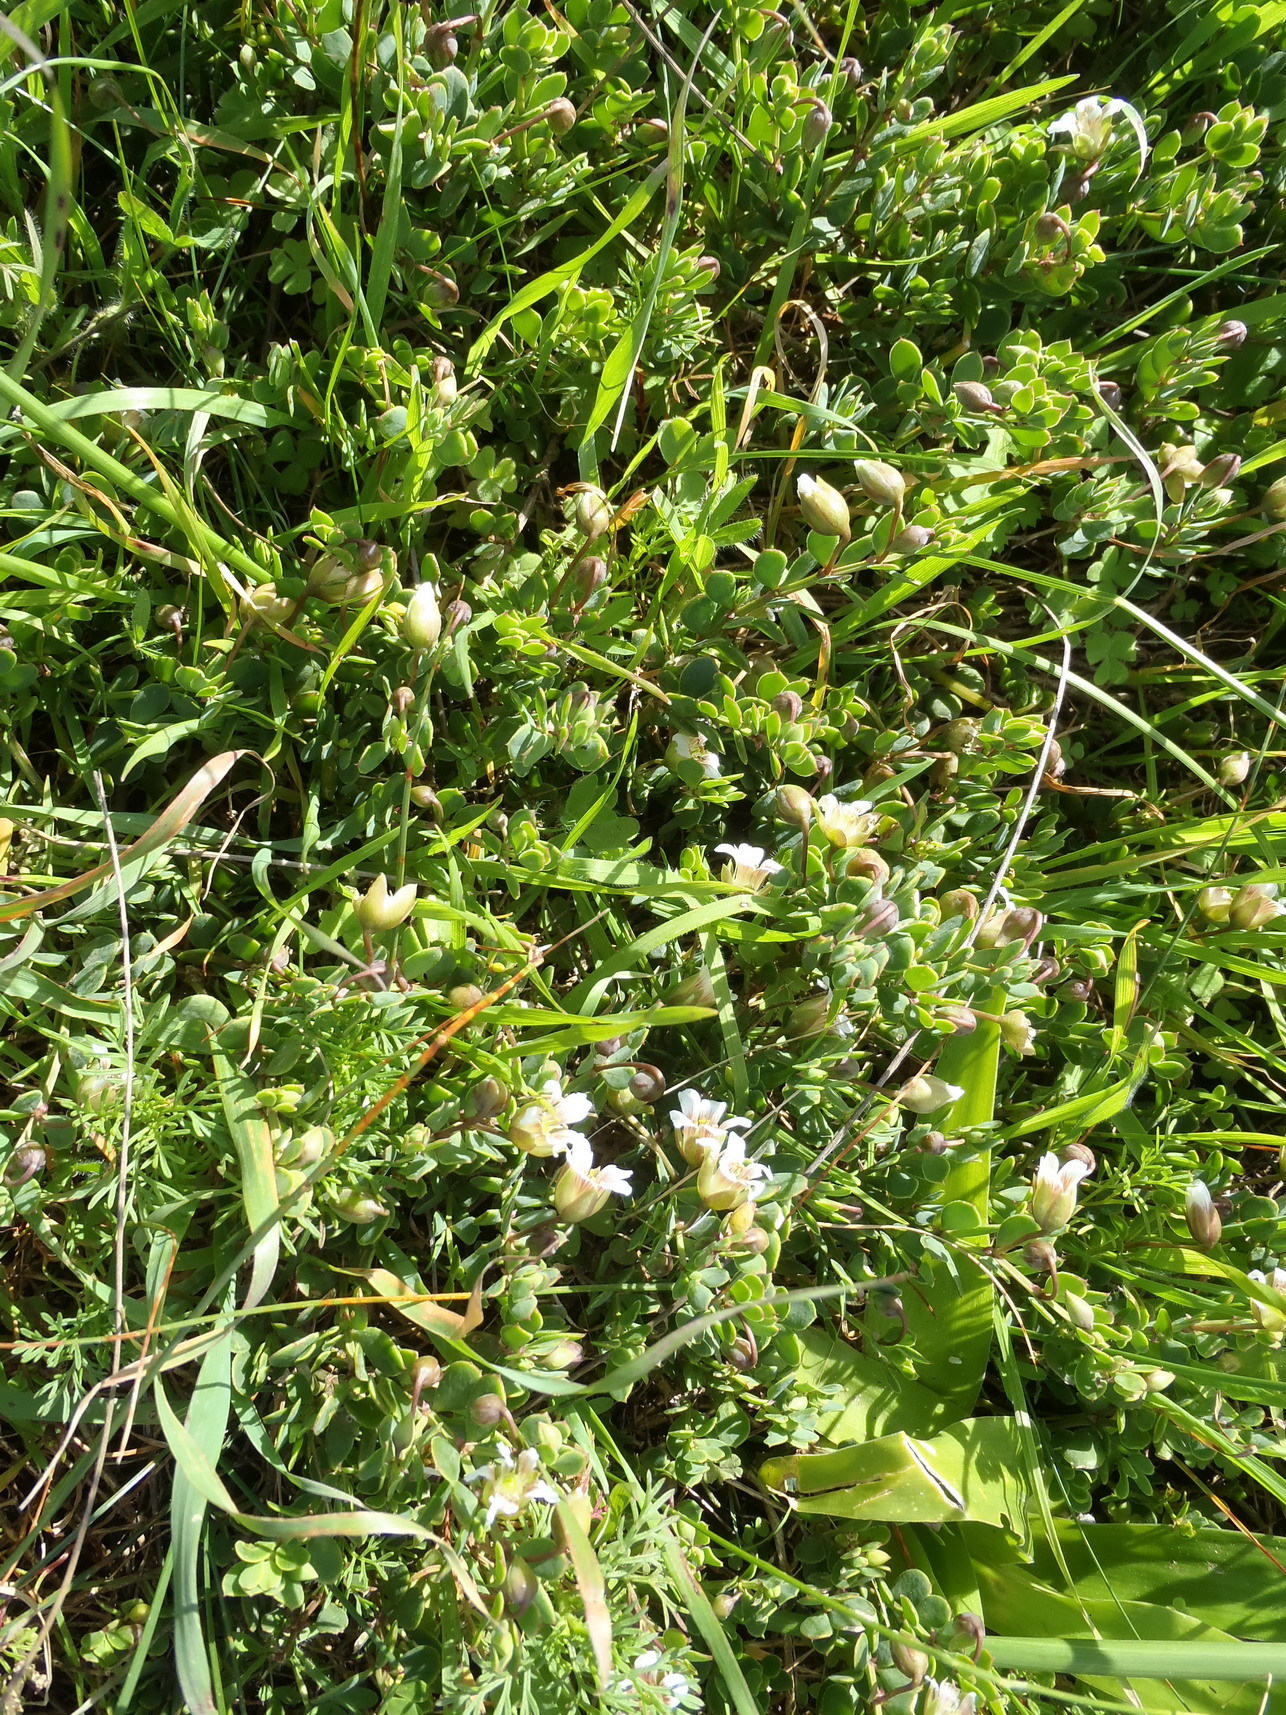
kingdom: Plantae
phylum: Tracheophyta
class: Magnoliopsida
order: Zygophyllales
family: Zygophyllaceae
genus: Roepera
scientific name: Roepera sessilifolia
